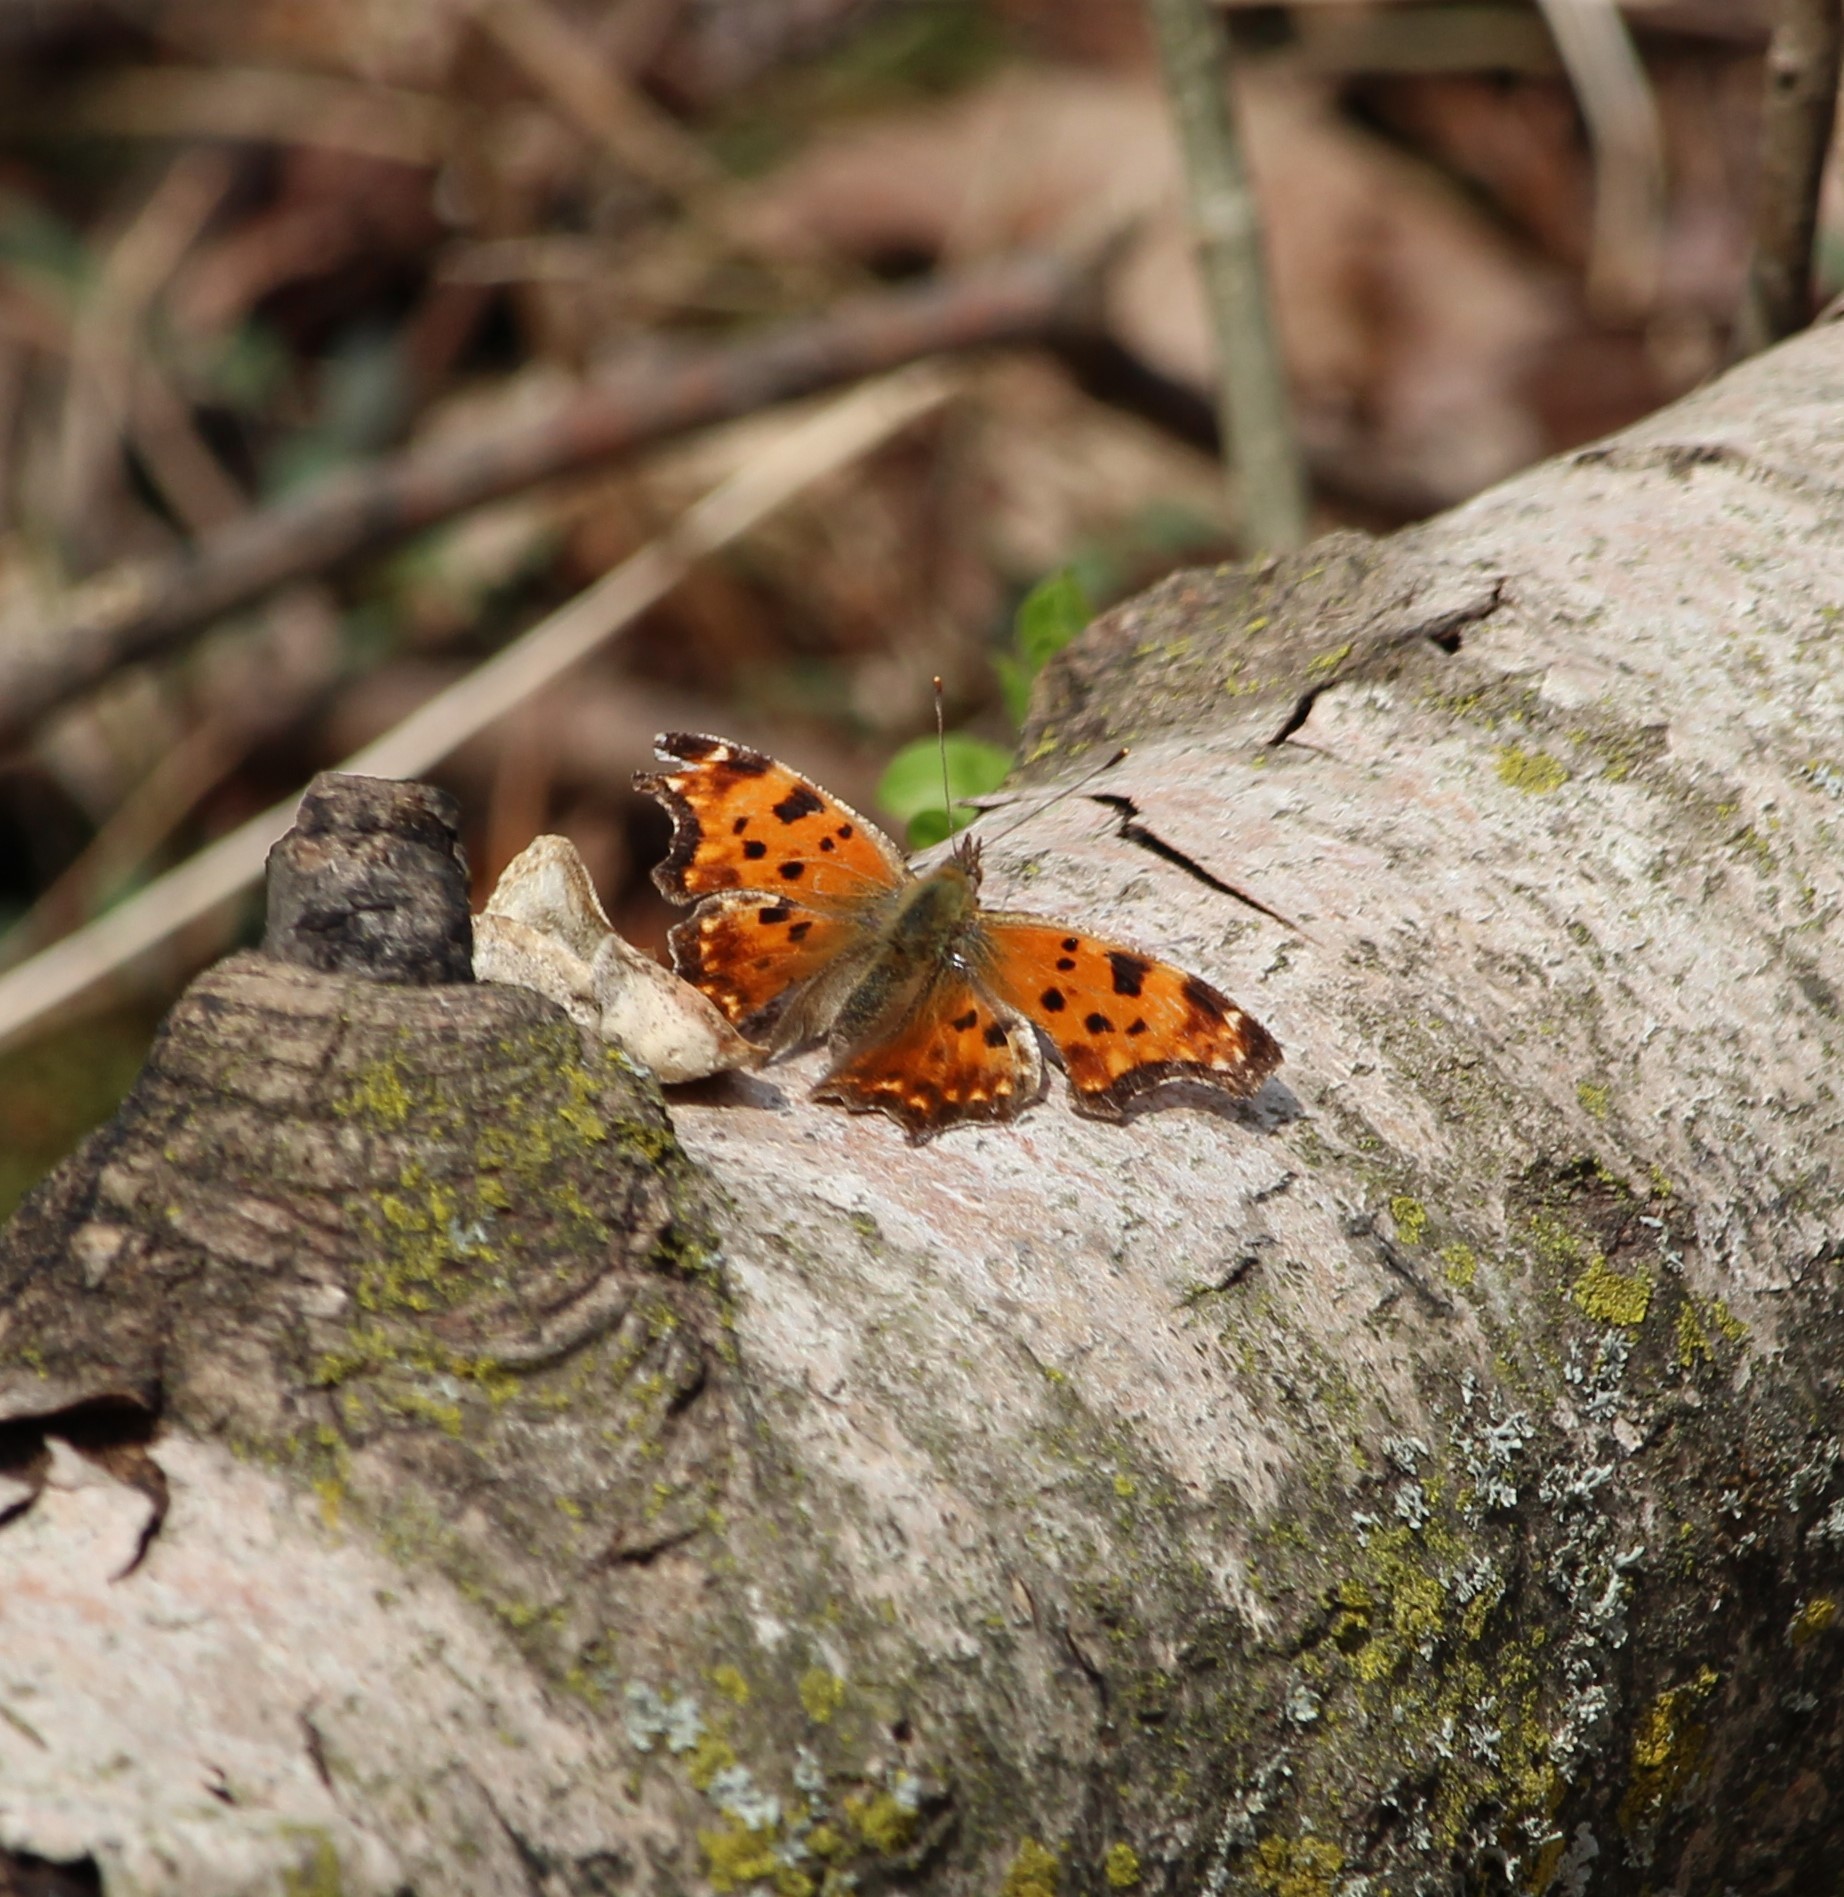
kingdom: Animalia
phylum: Arthropoda
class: Insecta
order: Lepidoptera
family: Nymphalidae
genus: Polygonia
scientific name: Polygonia comma
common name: Eastern comma
